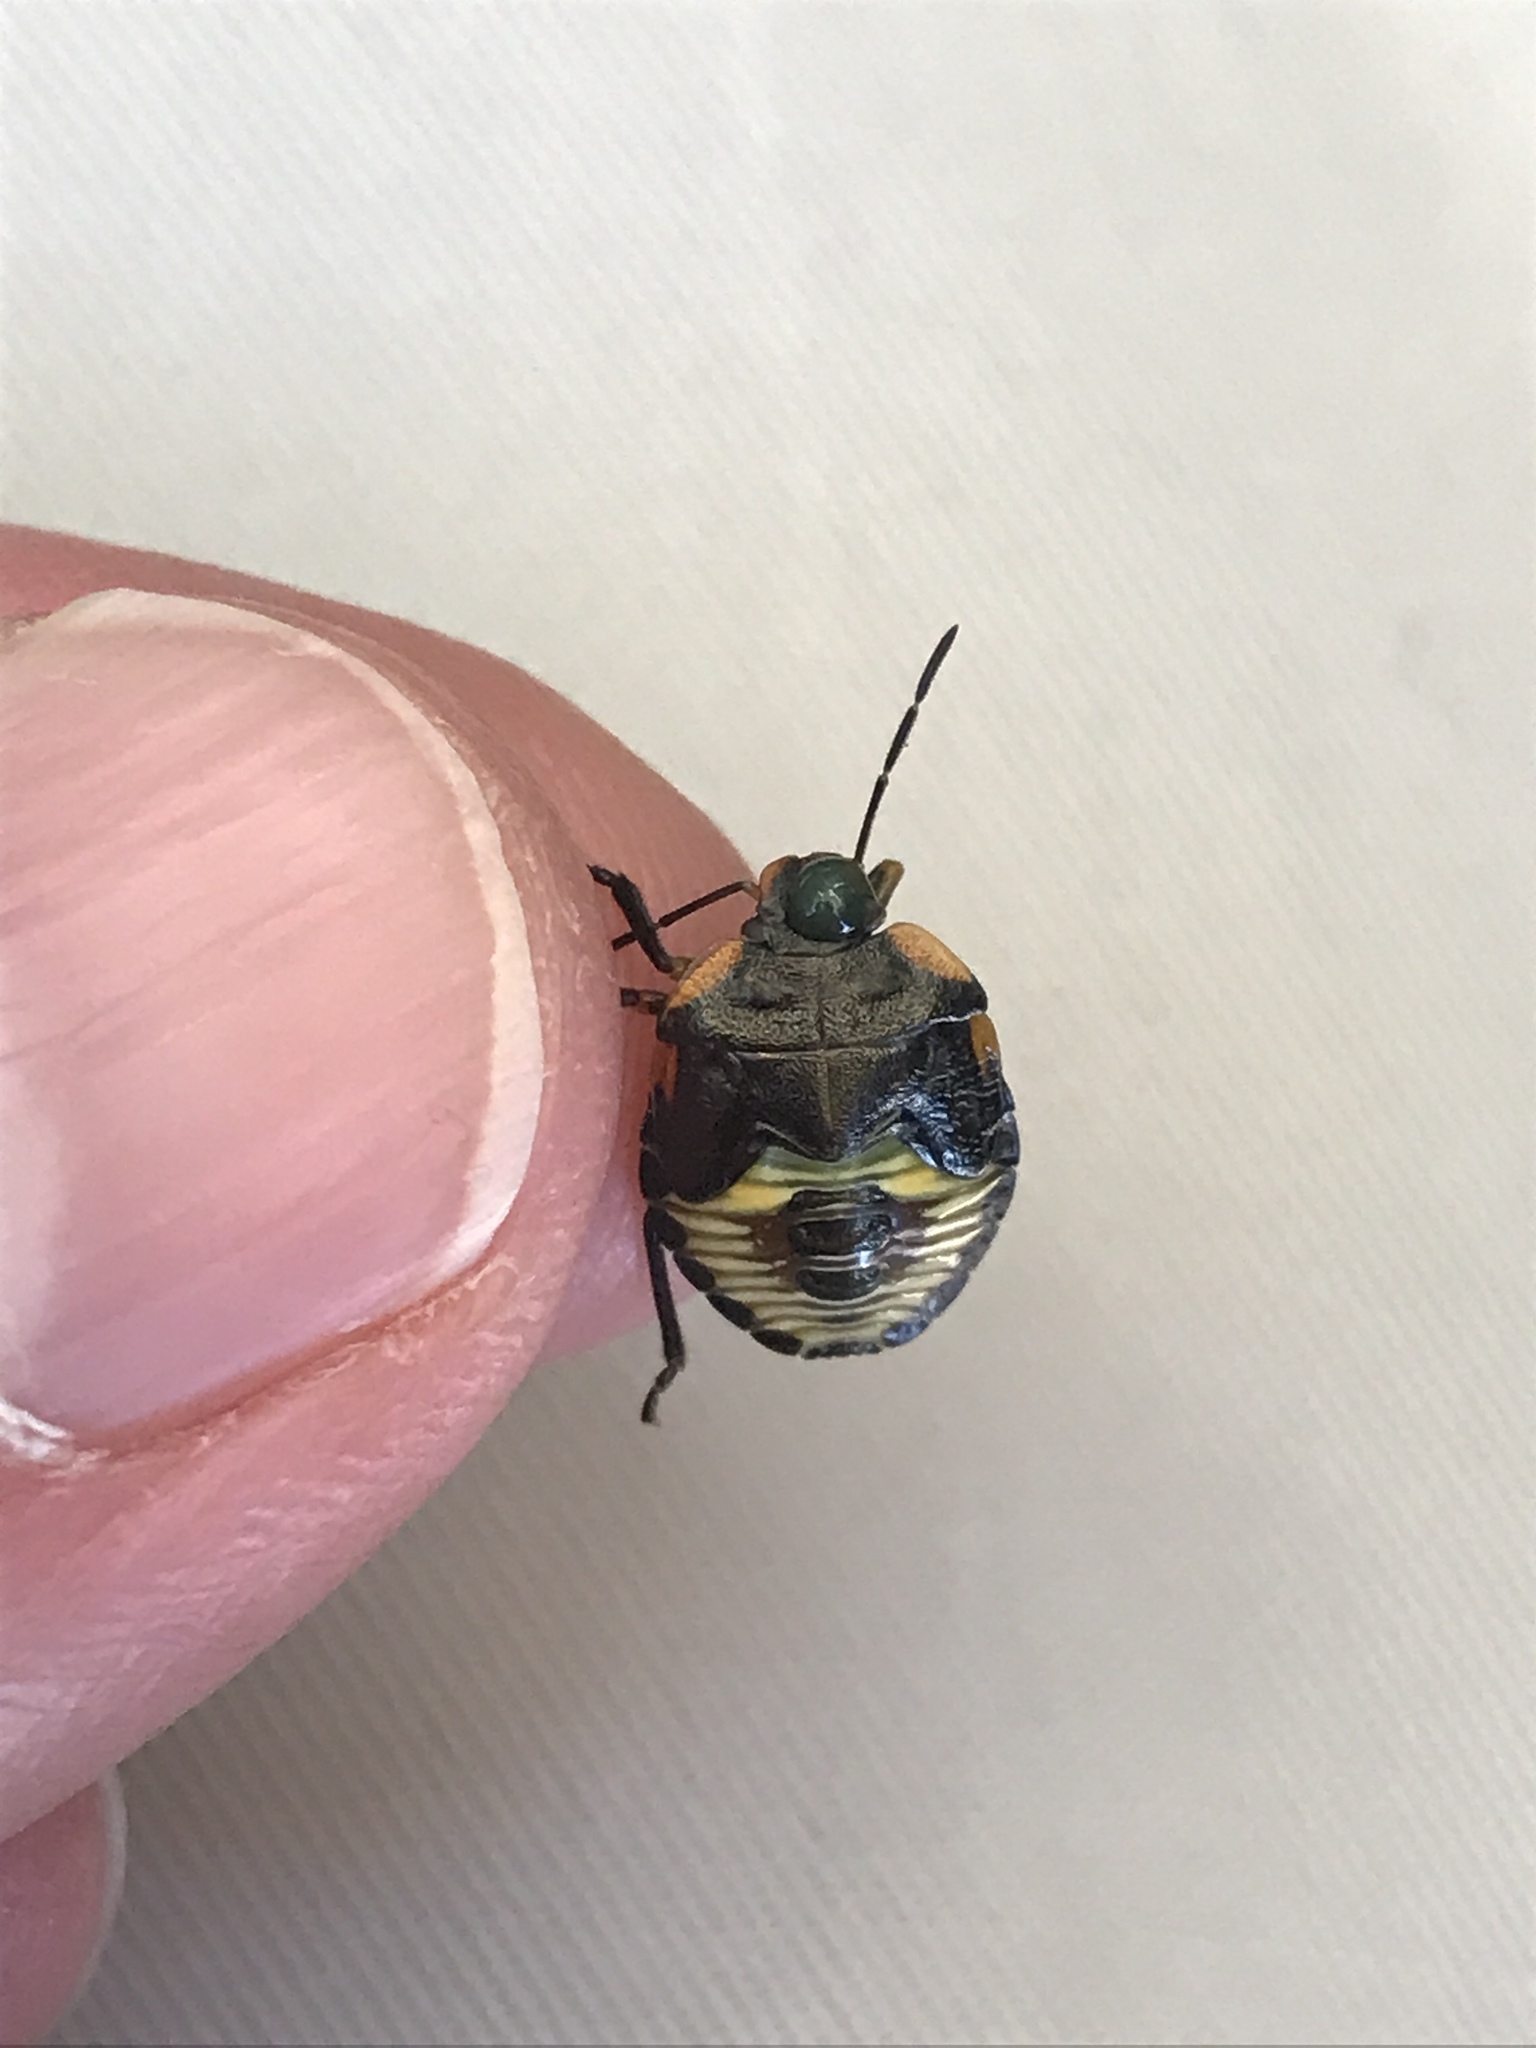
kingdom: Animalia
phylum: Arthropoda
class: Insecta
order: Hemiptera
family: Pentatomidae
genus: Chinavia
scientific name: Chinavia hilaris
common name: Green stink bug
